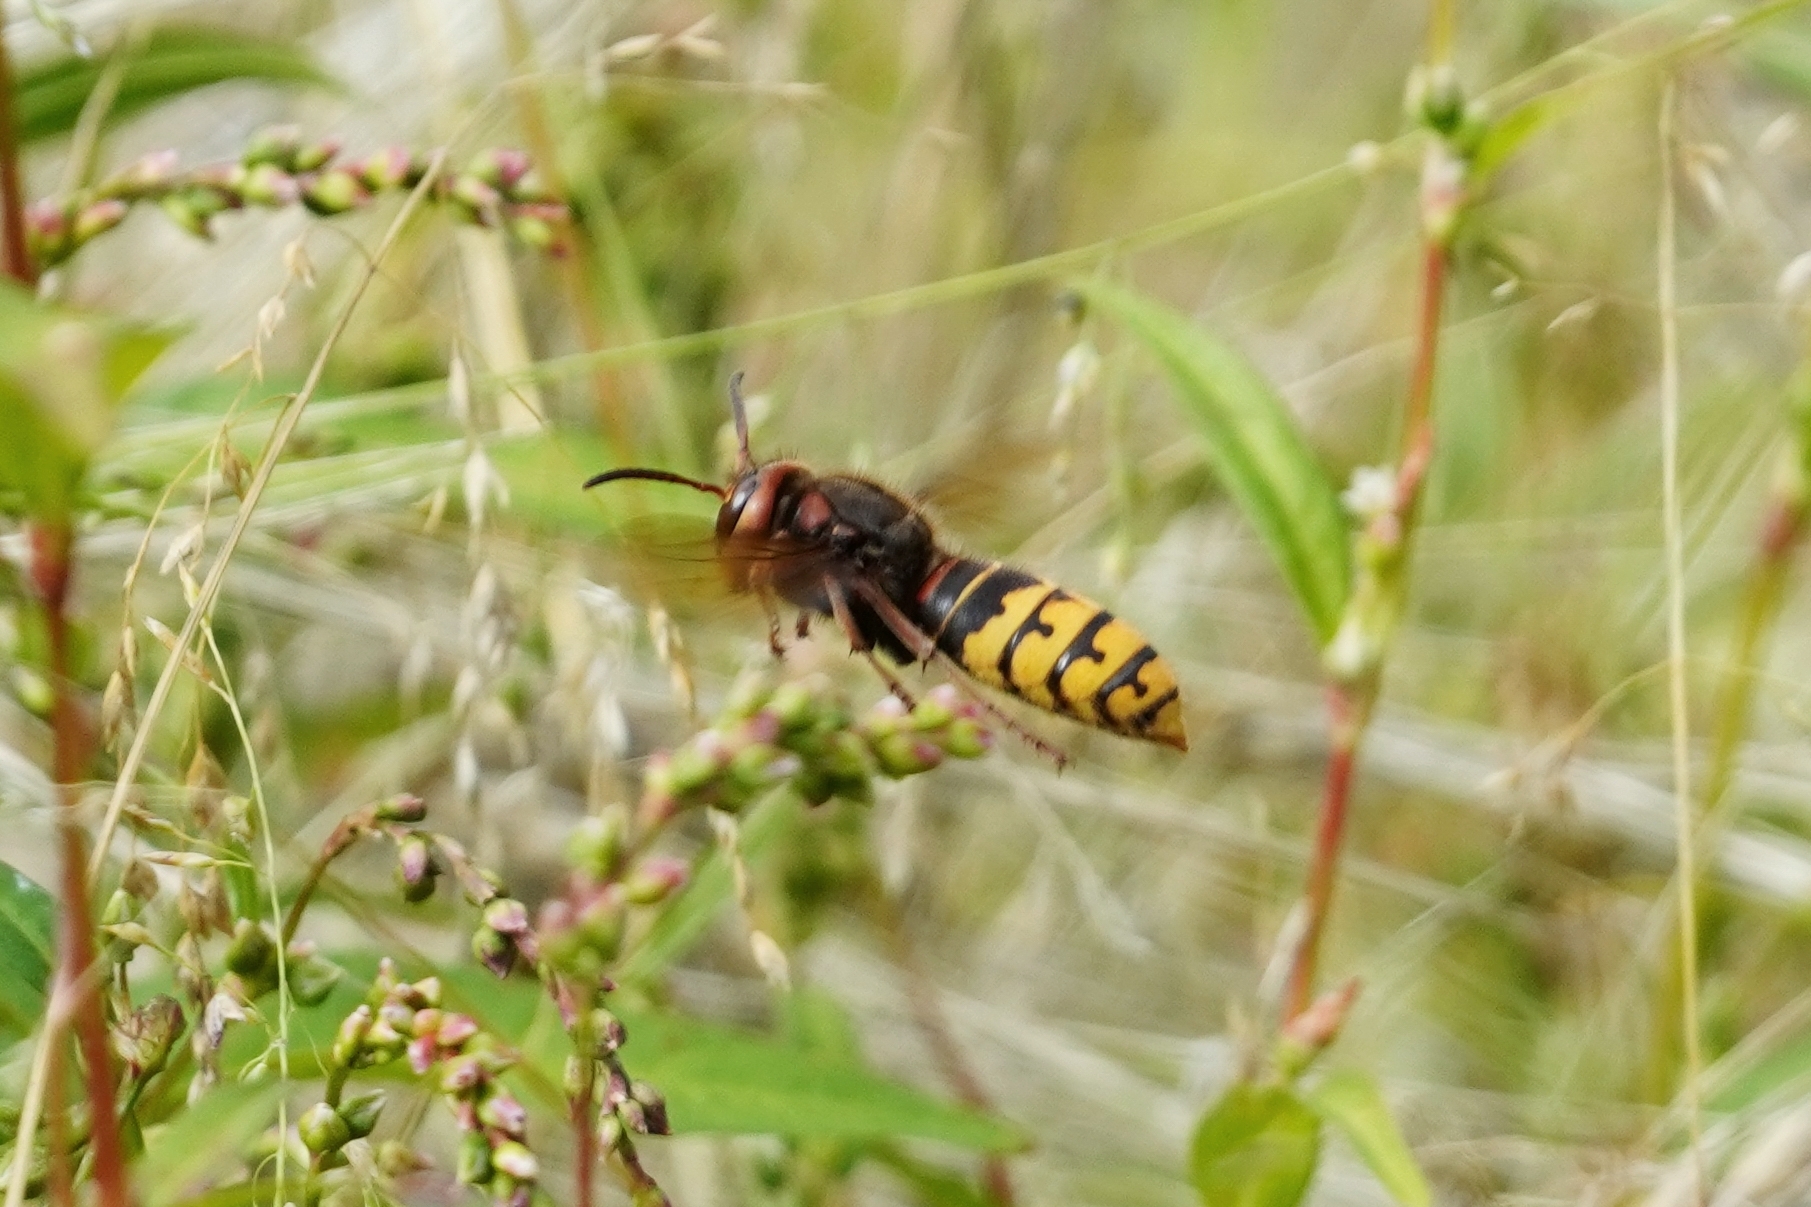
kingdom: Animalia
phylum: Arthropoda
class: Insecta
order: Hymenoptera
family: Vespidae
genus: Vespa
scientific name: Vespa crabro
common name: Hornet
